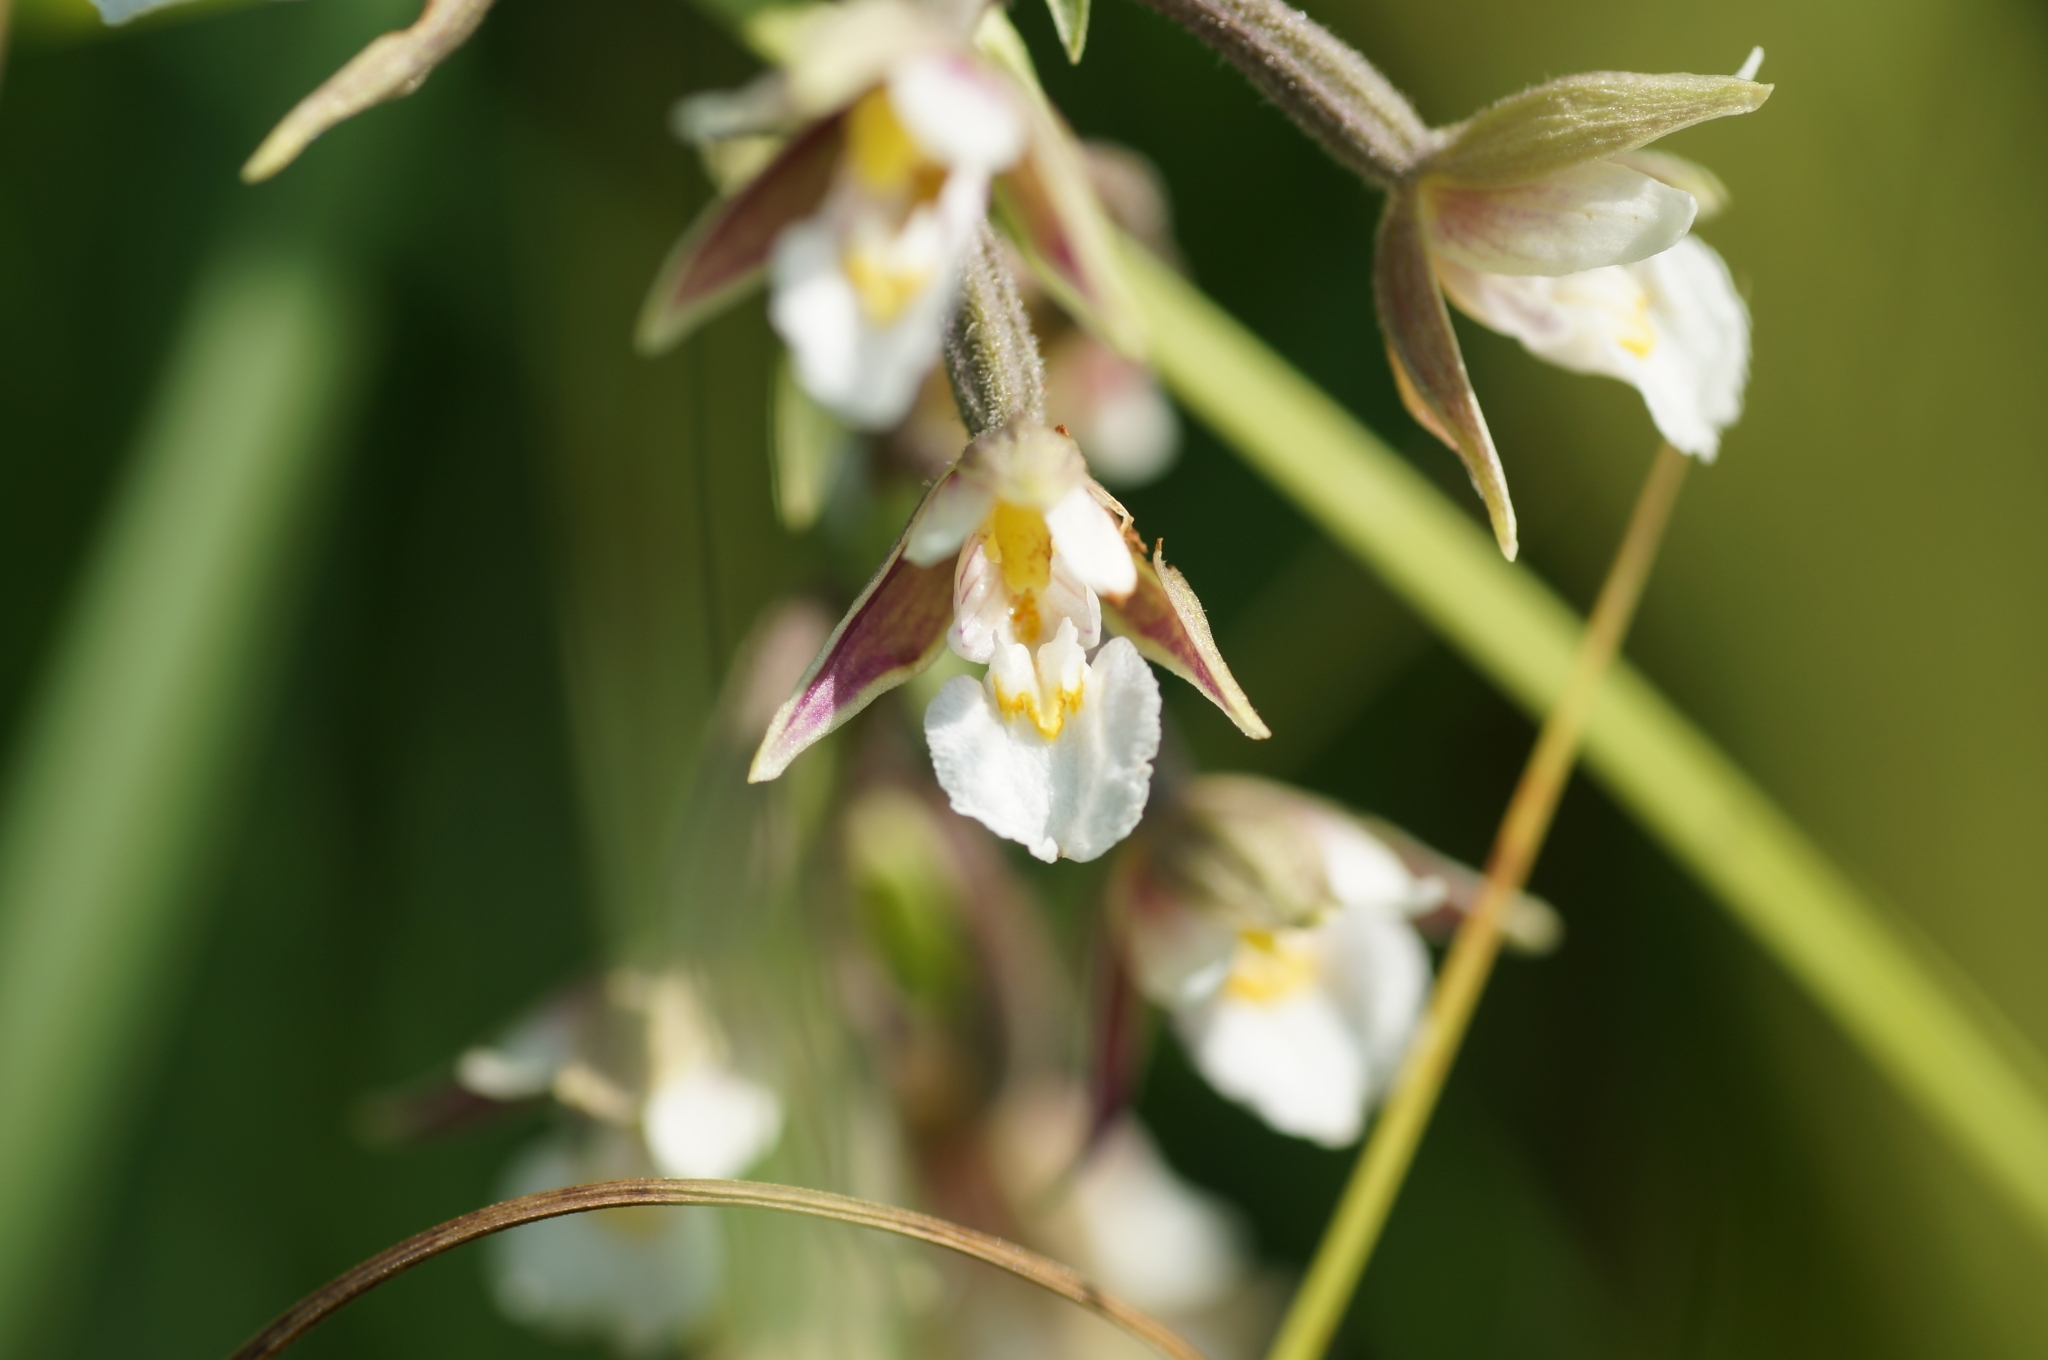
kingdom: Plantae
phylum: Tracheophyta
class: Liliopsida
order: Asparagales
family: Orchidaceae
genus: Epipactis
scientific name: Epipactis palustris
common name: Marsh helleborine
